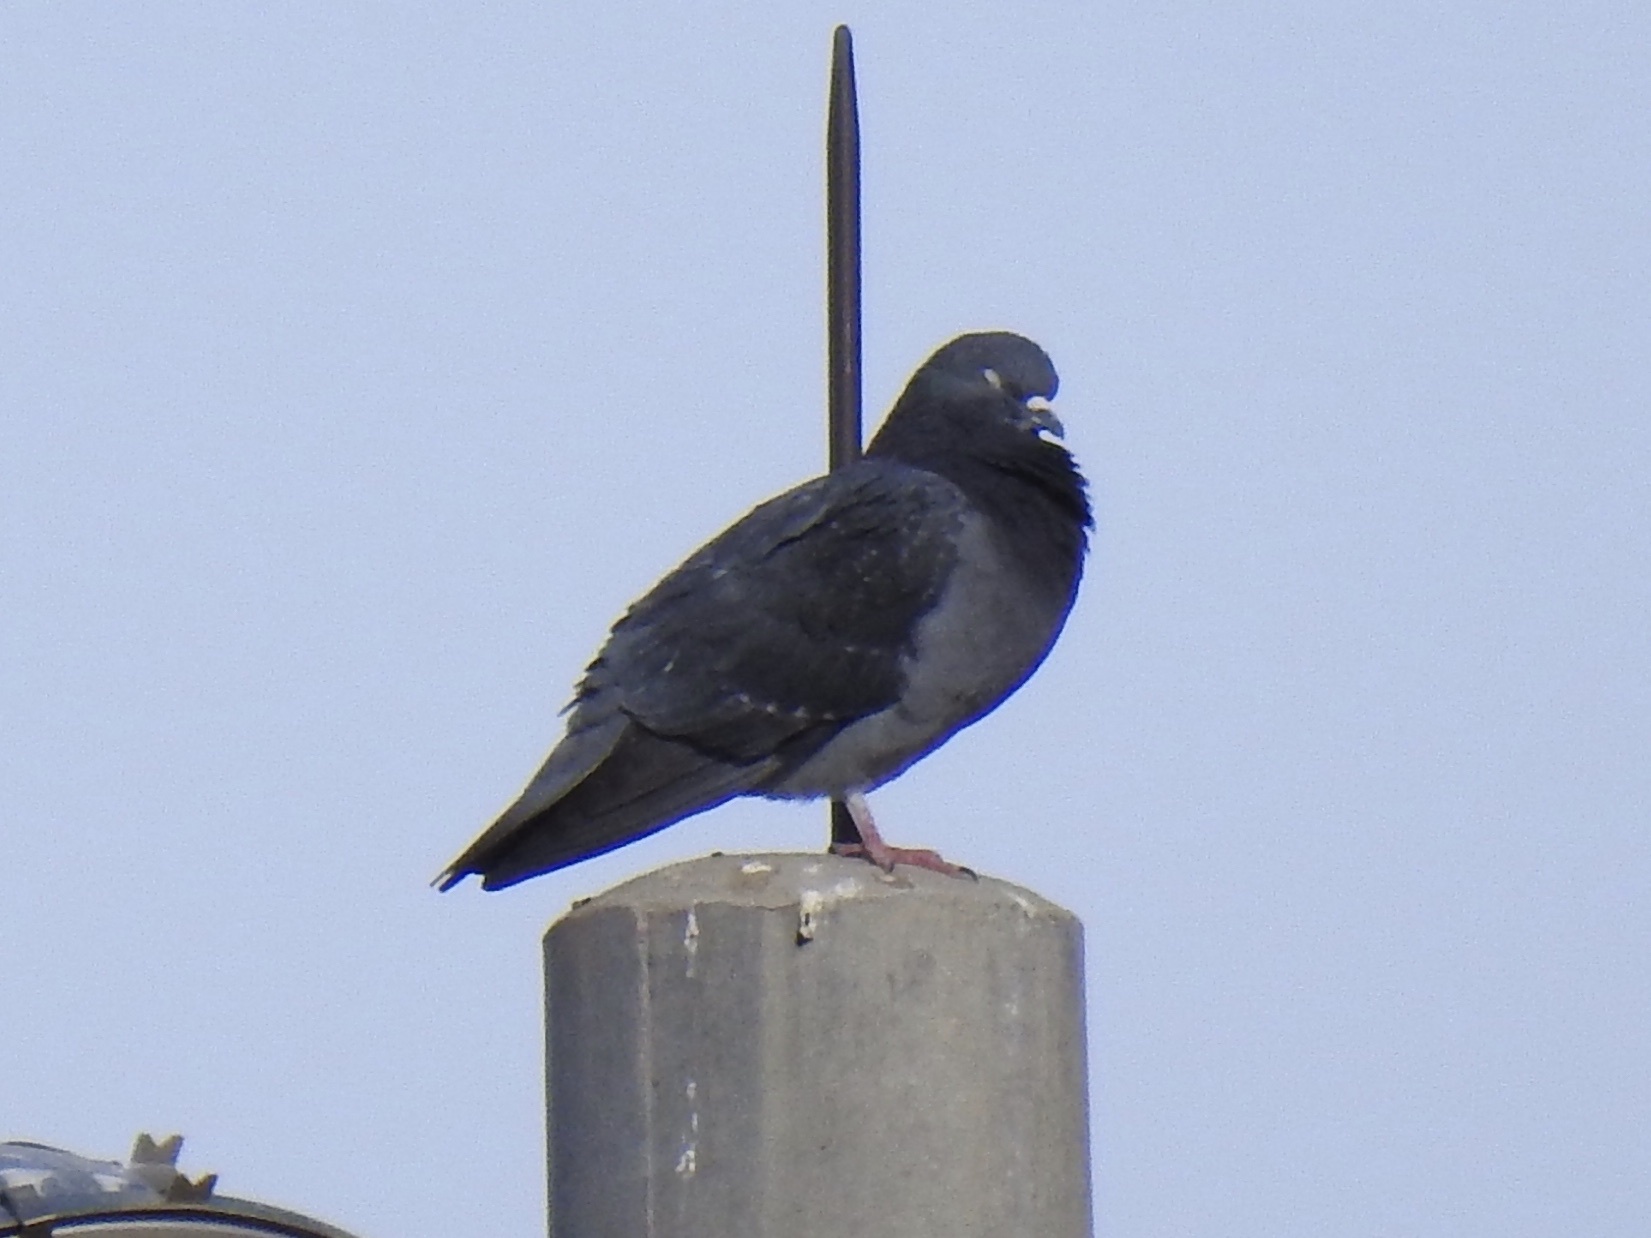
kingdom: Animalia
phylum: Chordata
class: Aves
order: Columbiformes
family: Columbidae
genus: Columba
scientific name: Columba livia
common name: Rock pigeon
